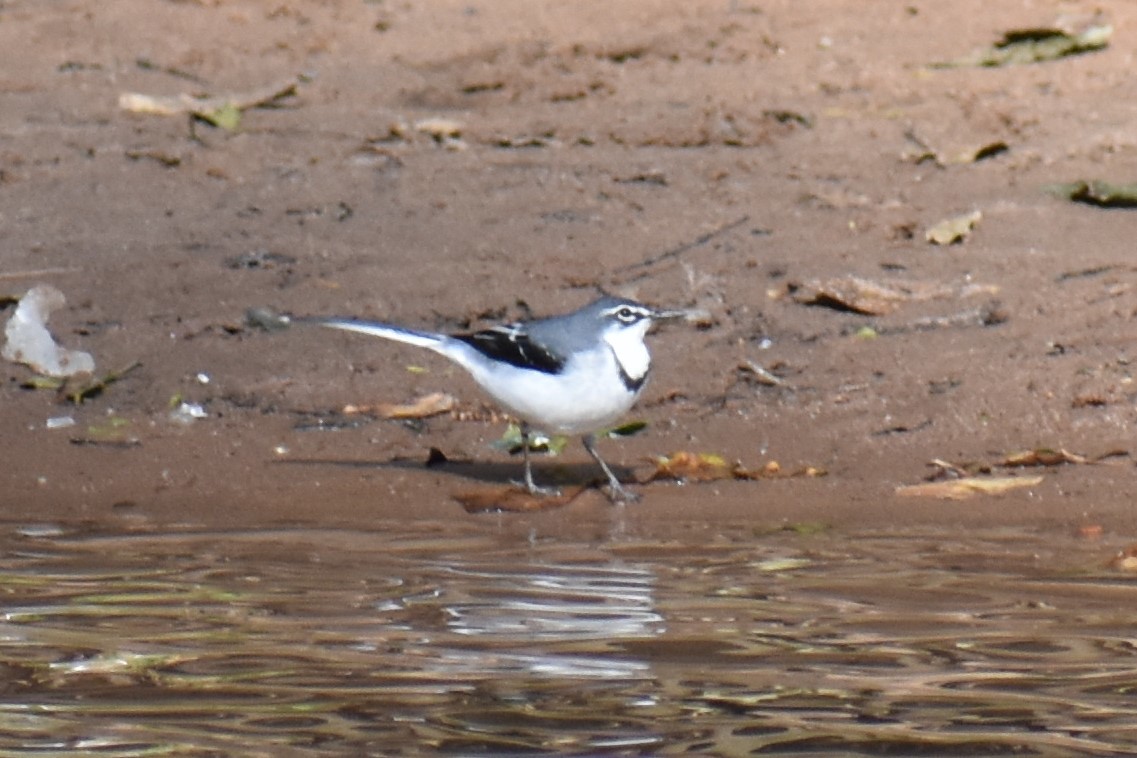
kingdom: Animalia
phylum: Chordata
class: Aves
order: Passeriformes
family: Motacillidae
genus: Motacilla
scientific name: Motacilla clara
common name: Mountain wagtail
